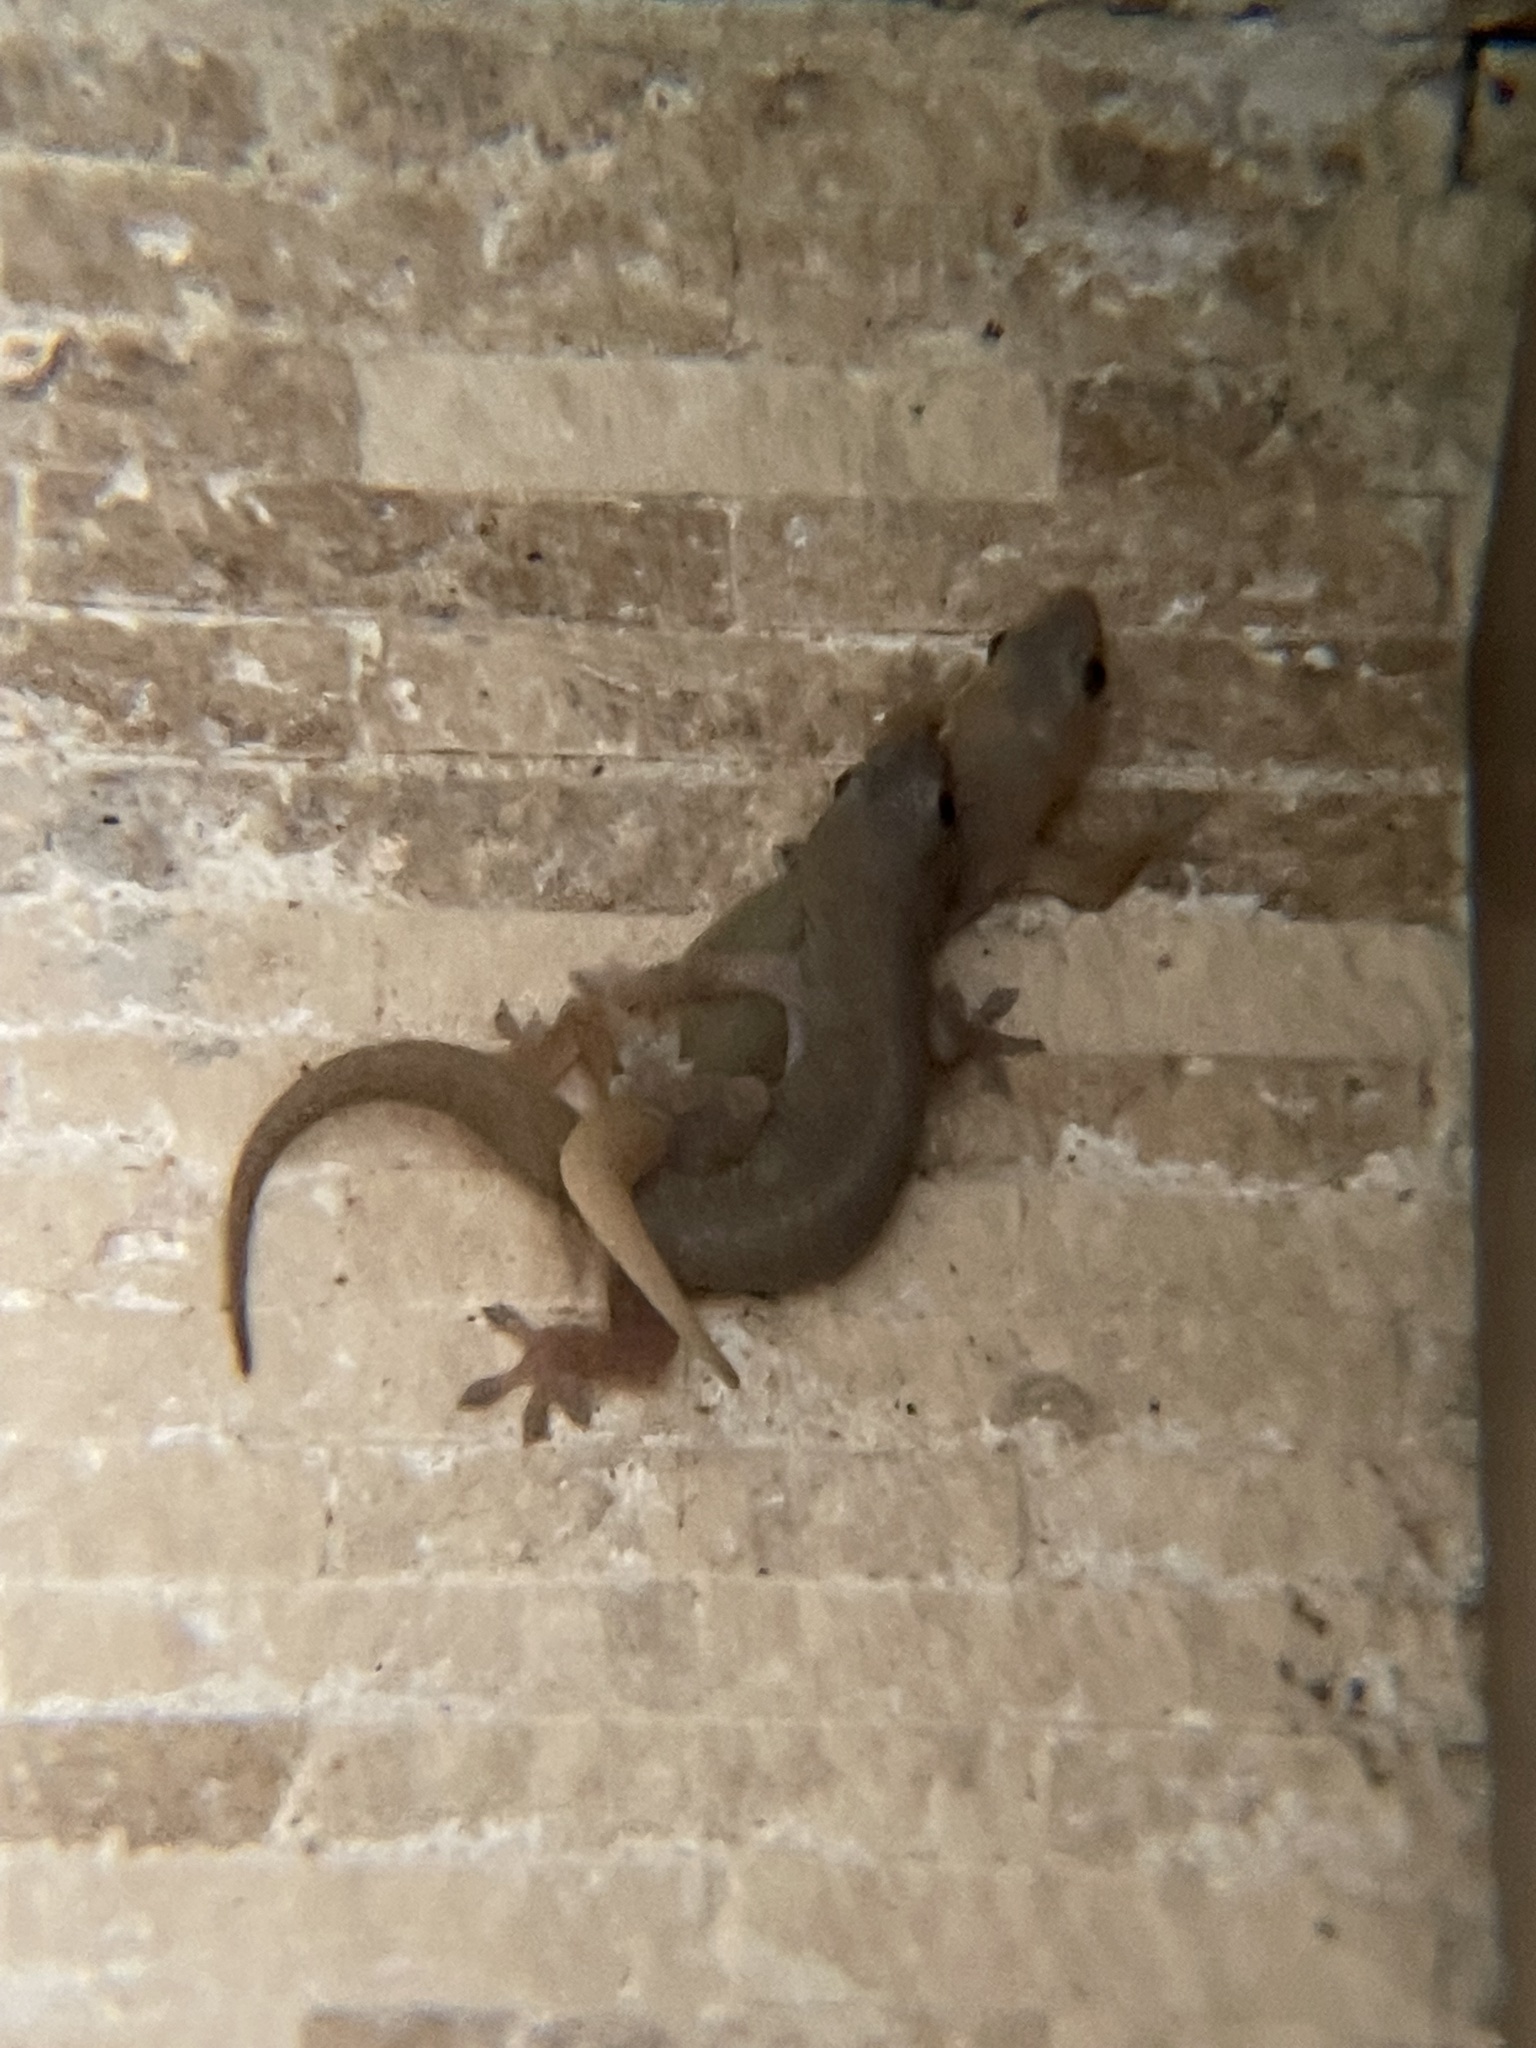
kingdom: Animalia
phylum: Chordata
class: Squamata
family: Gekkonidae
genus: Hemidactylus
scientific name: Hemidactylus frenatus
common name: Common house gecko
